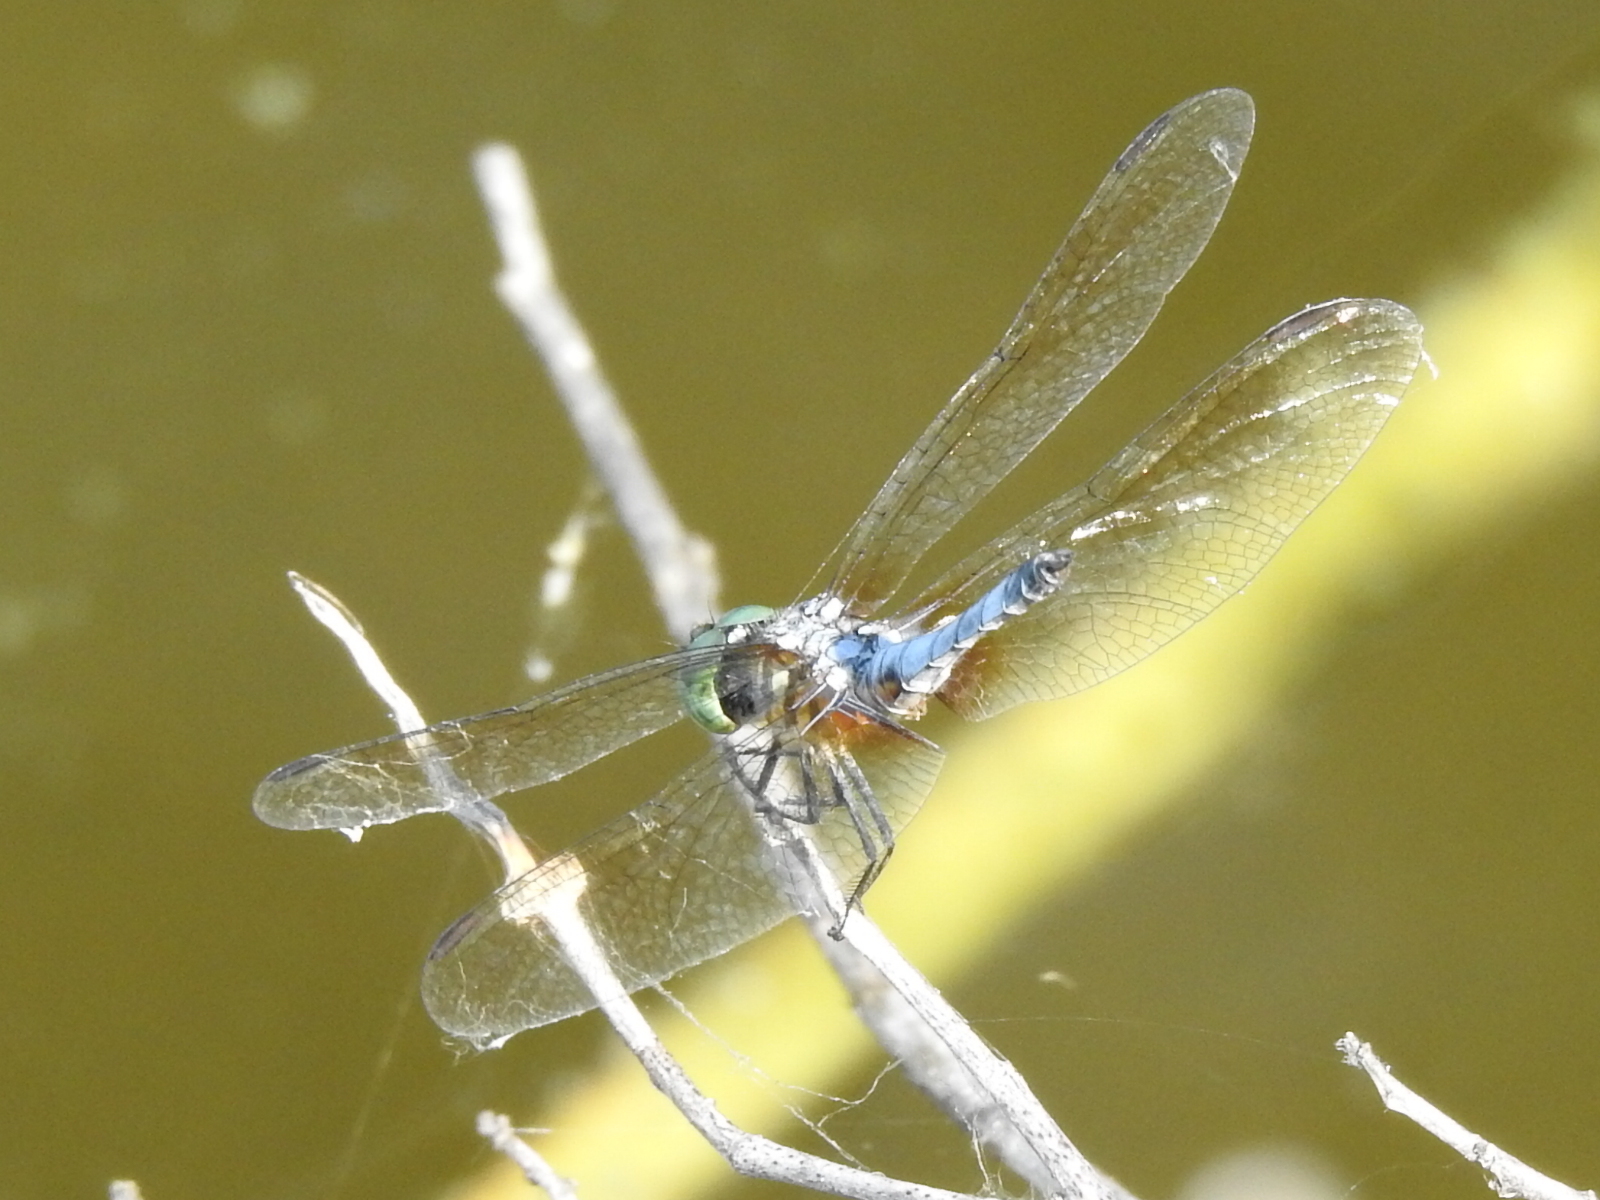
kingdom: Animalia
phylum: Arthropoda
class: Insecta
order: Odonata
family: Libellulidae
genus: Pachydiplax
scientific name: Pachydiplax longipennis
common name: Blue dasher
